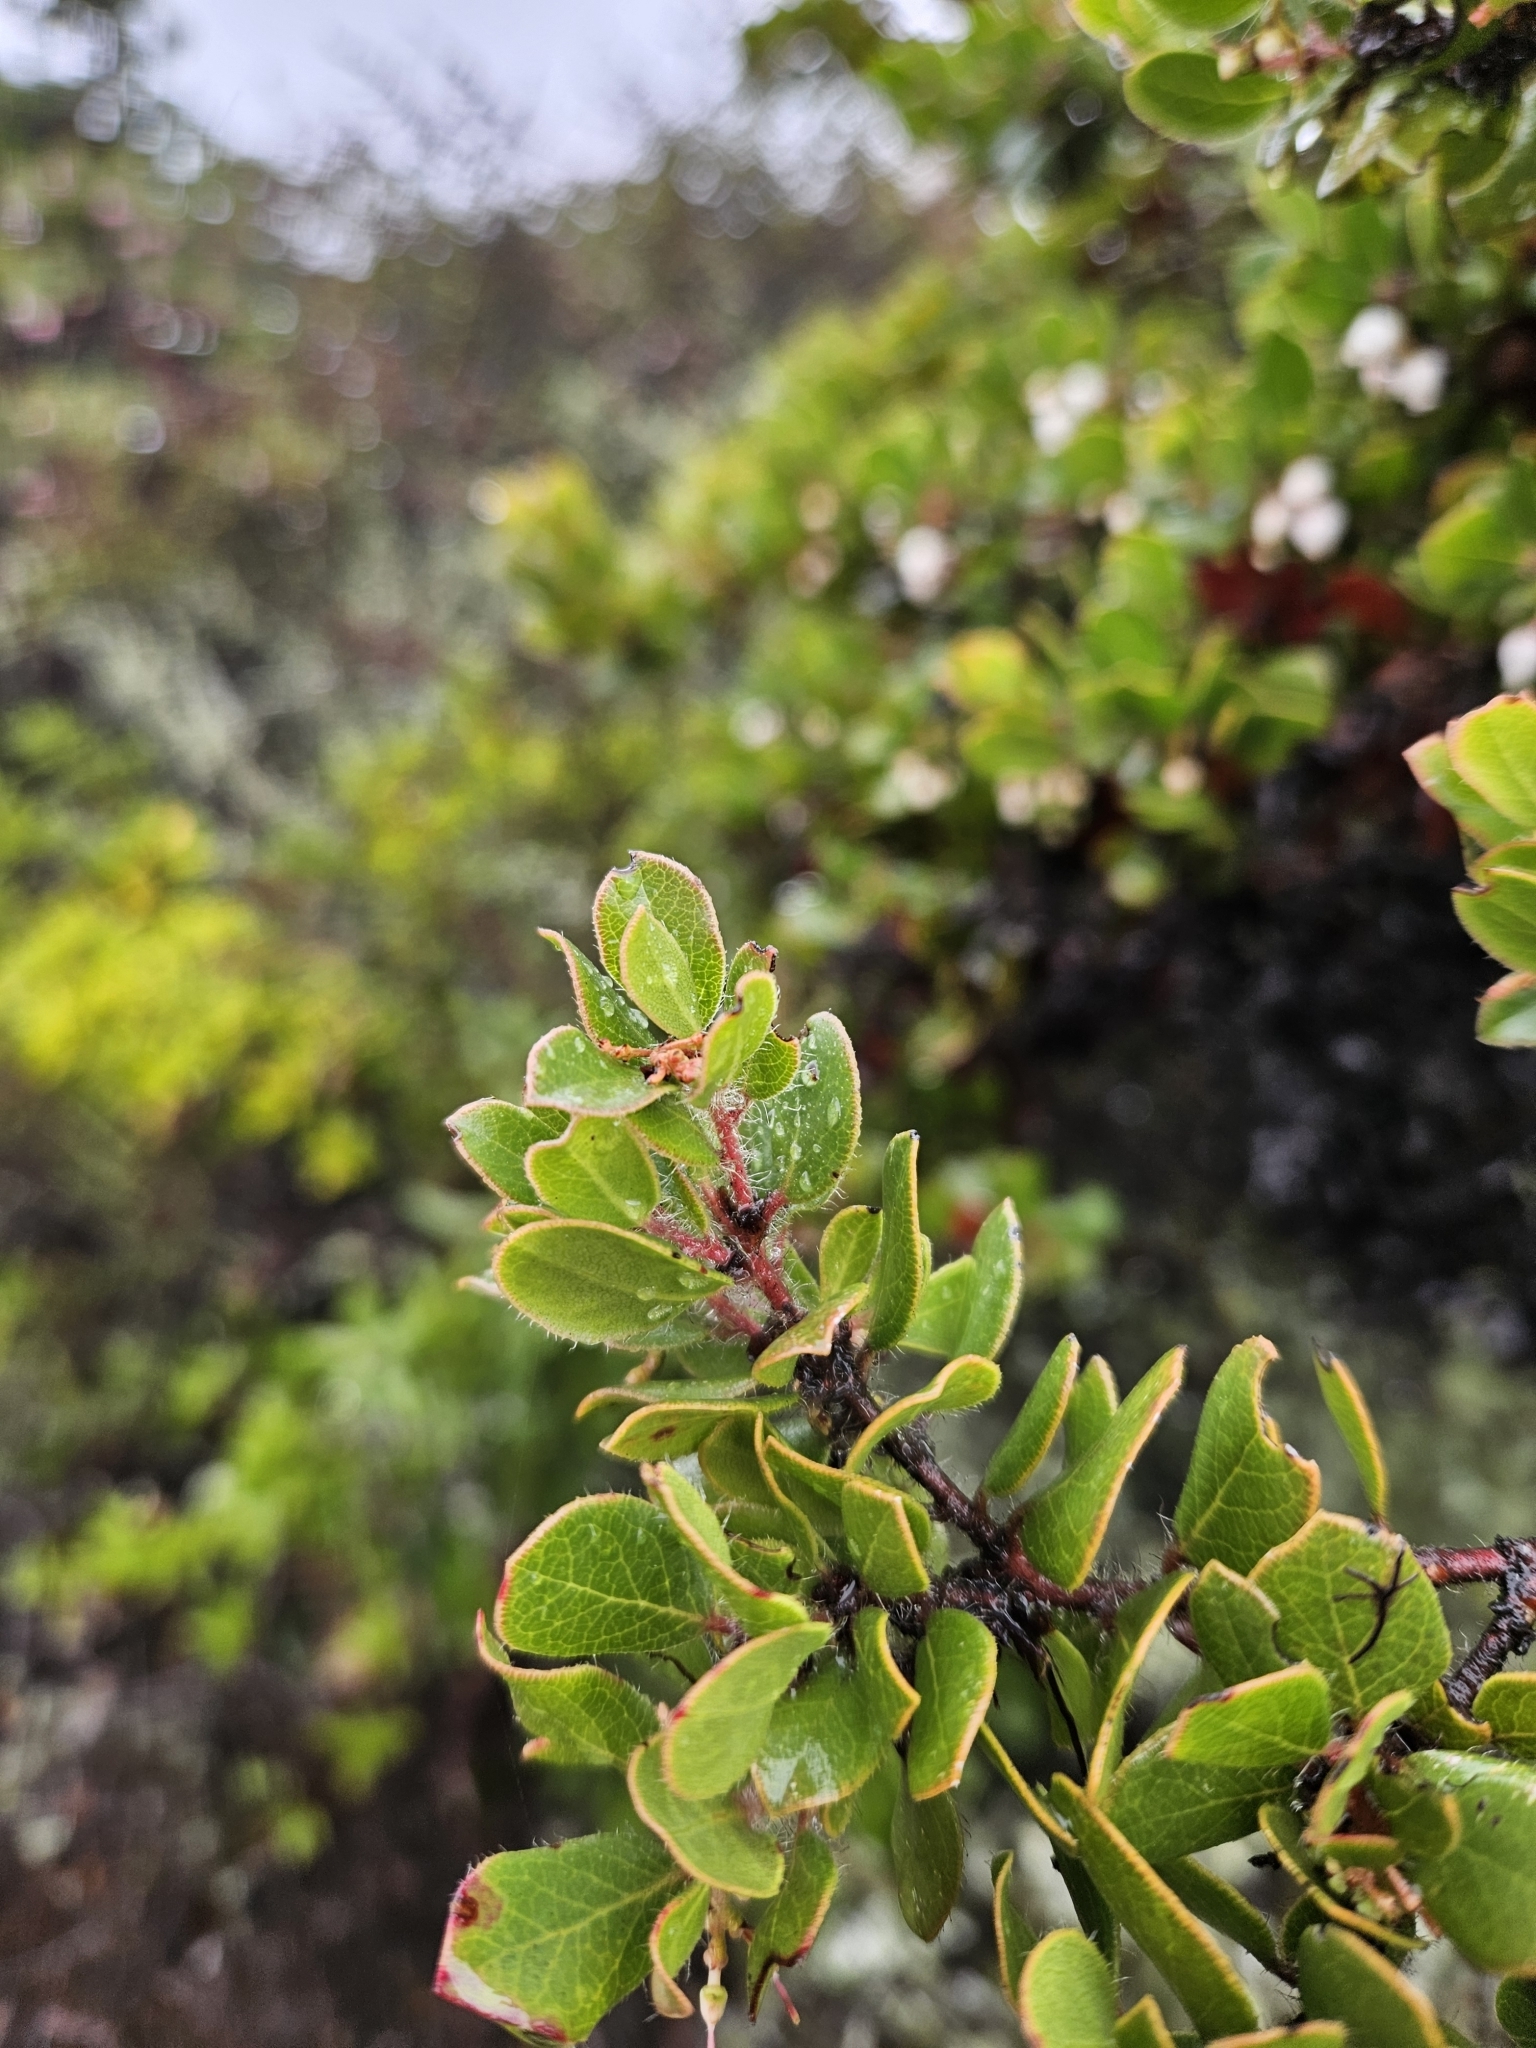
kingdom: Plantae
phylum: Tracheophyta
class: Magnoliopsida
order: Ericales
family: Ericaceae
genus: Arctostaphylos
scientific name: Arctostaphylos nummularia
